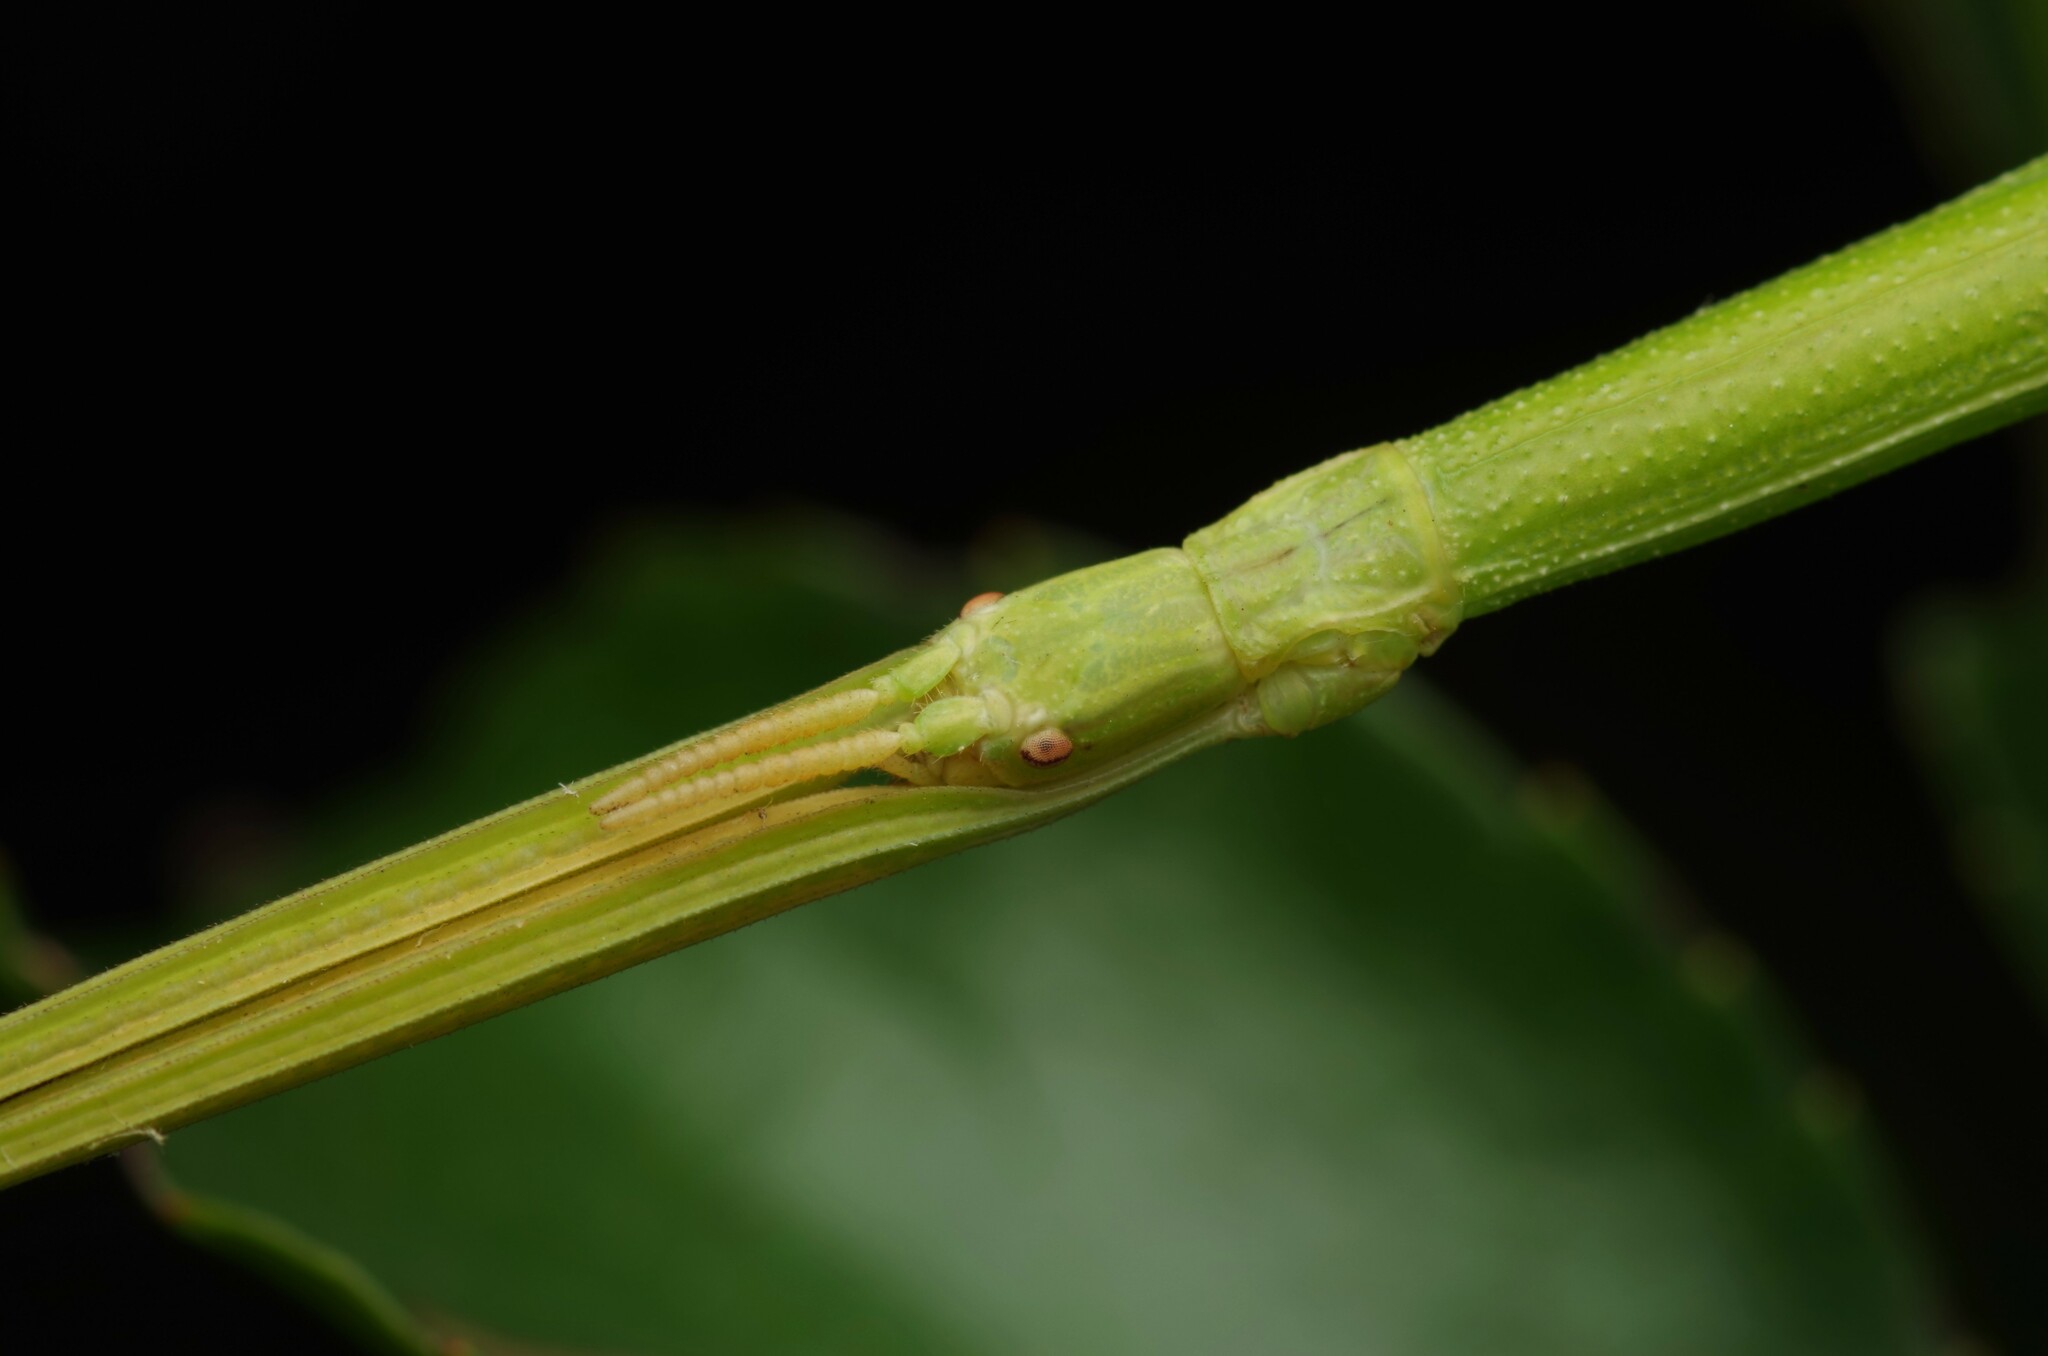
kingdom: Animalia
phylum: Arthropoda
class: Insecta
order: Phasmida
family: Bacillidae
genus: Clonopsis
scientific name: Clonopsis gallica
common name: French stick insect
